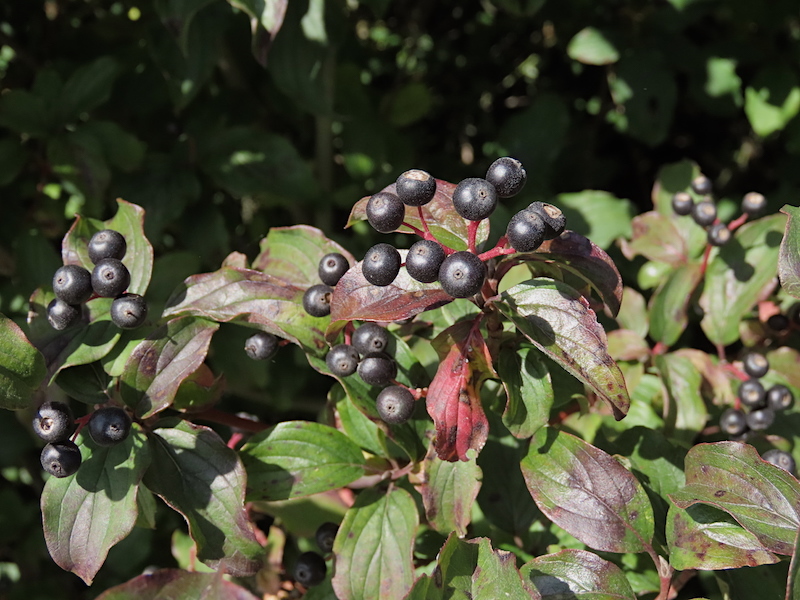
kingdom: Plantae
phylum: Tracheophyta
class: Magnoliopsida
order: Cornales
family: Cornaceae
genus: Cornus
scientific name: Cornus sanguinea
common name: Dogwood
